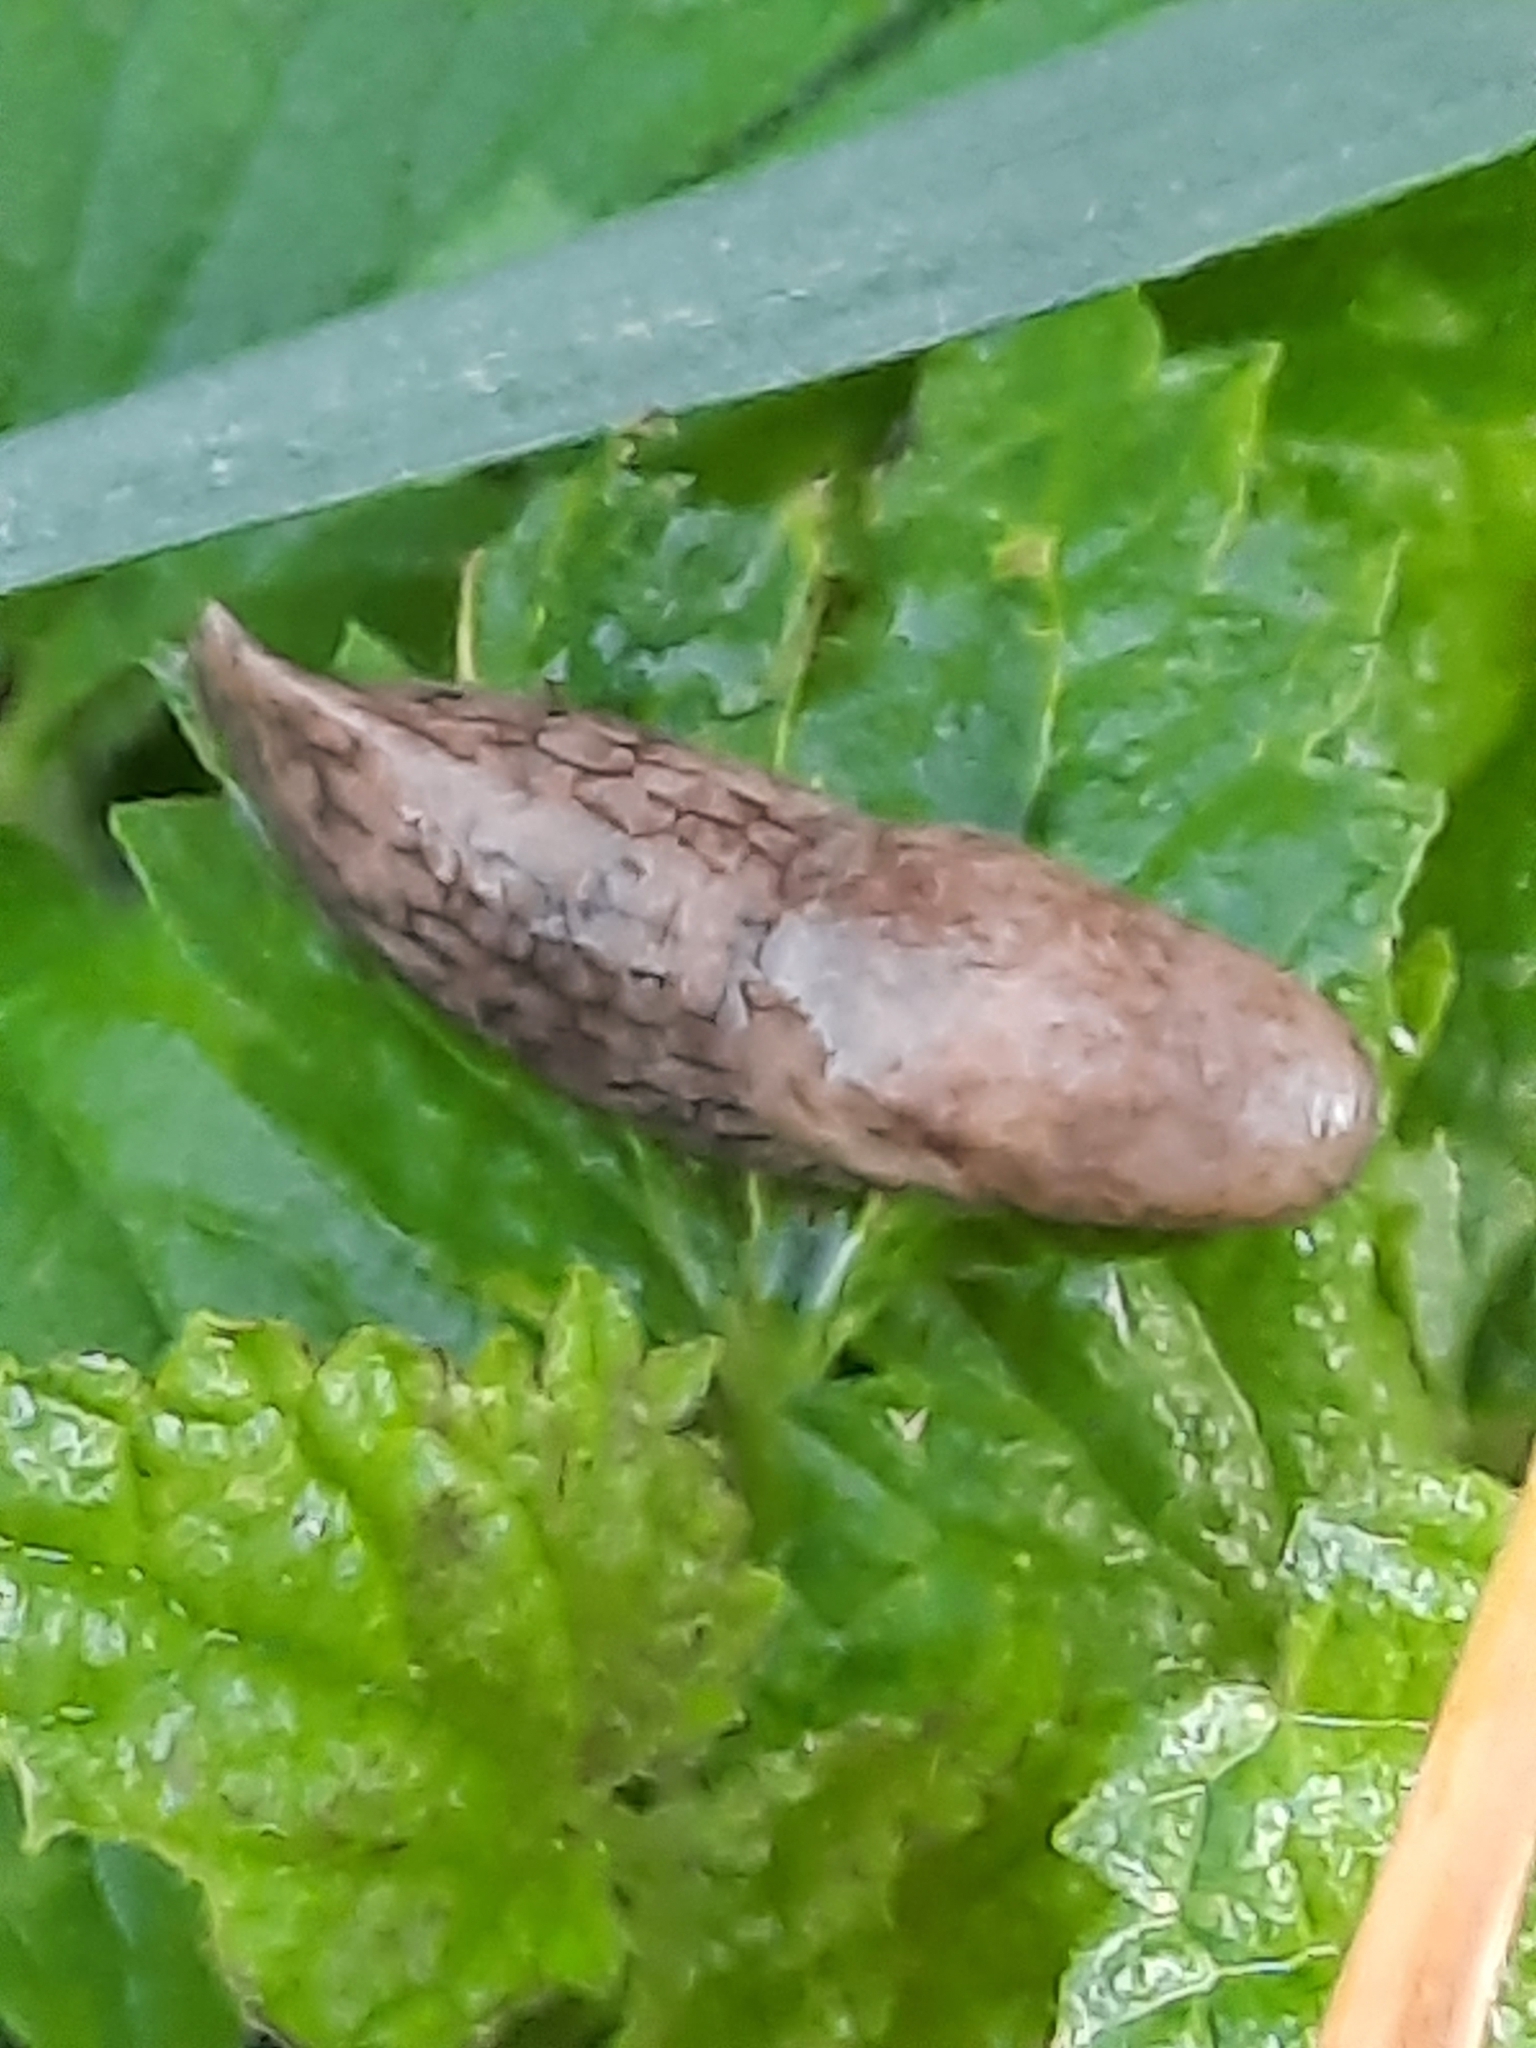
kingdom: Animalia
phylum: Mollusca
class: Gastropoda
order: Stylommatophora
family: Agriolimacidae
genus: Deroceras
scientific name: Deroceras reticulatum
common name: Gray field slug
